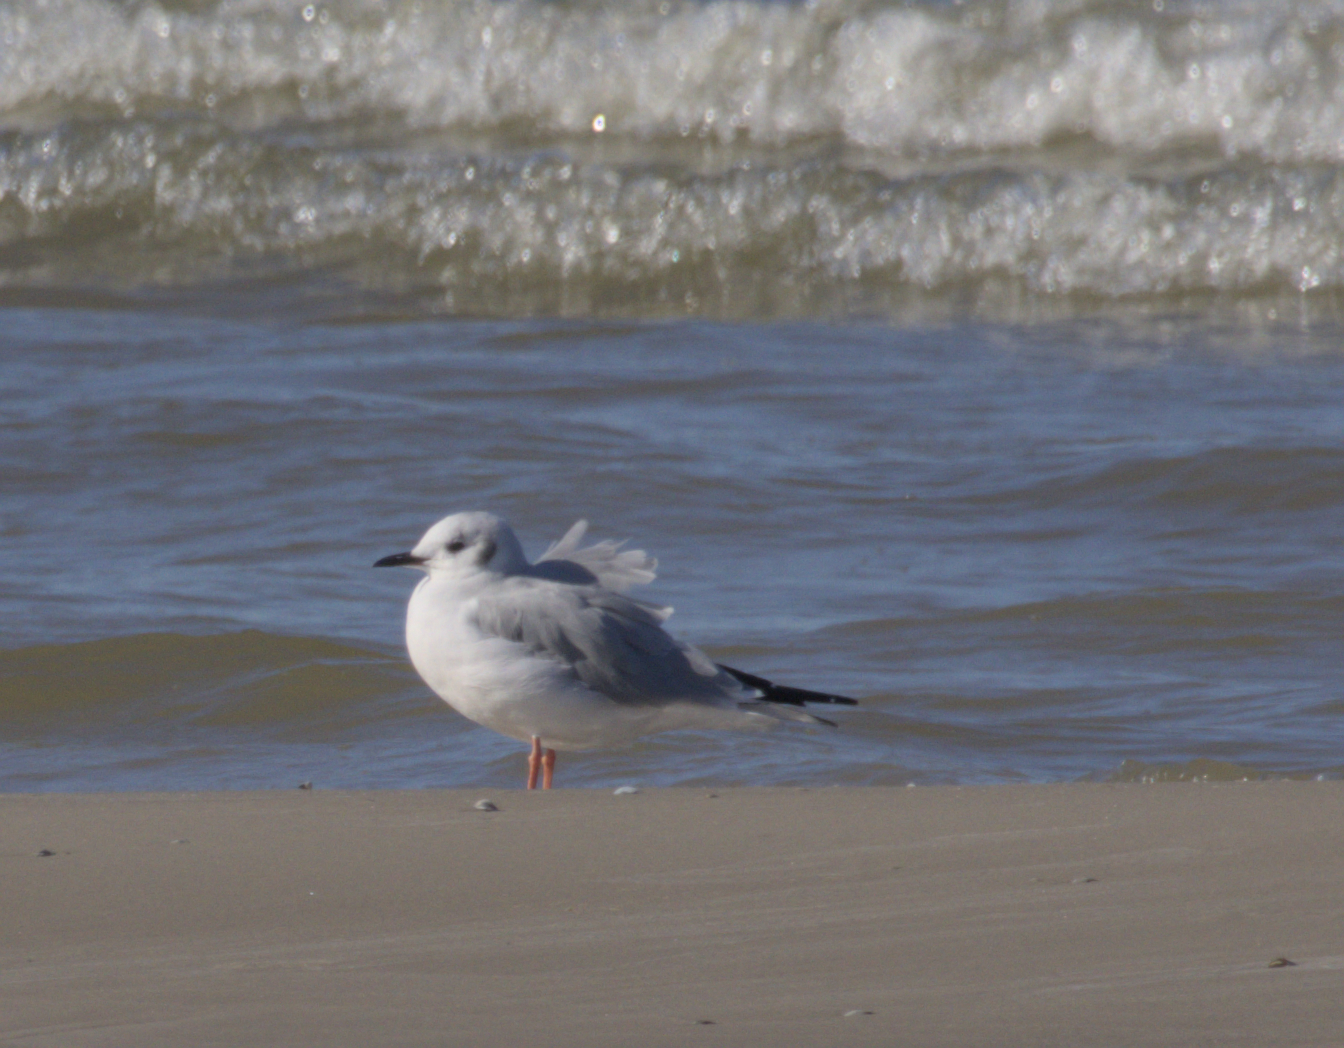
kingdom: Animalia
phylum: Chordata
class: Aves
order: Charadriiformes
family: Laridae
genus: Chroicocephalus
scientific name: Chroicocephalus philadelphia
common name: Bonaparte's gull
